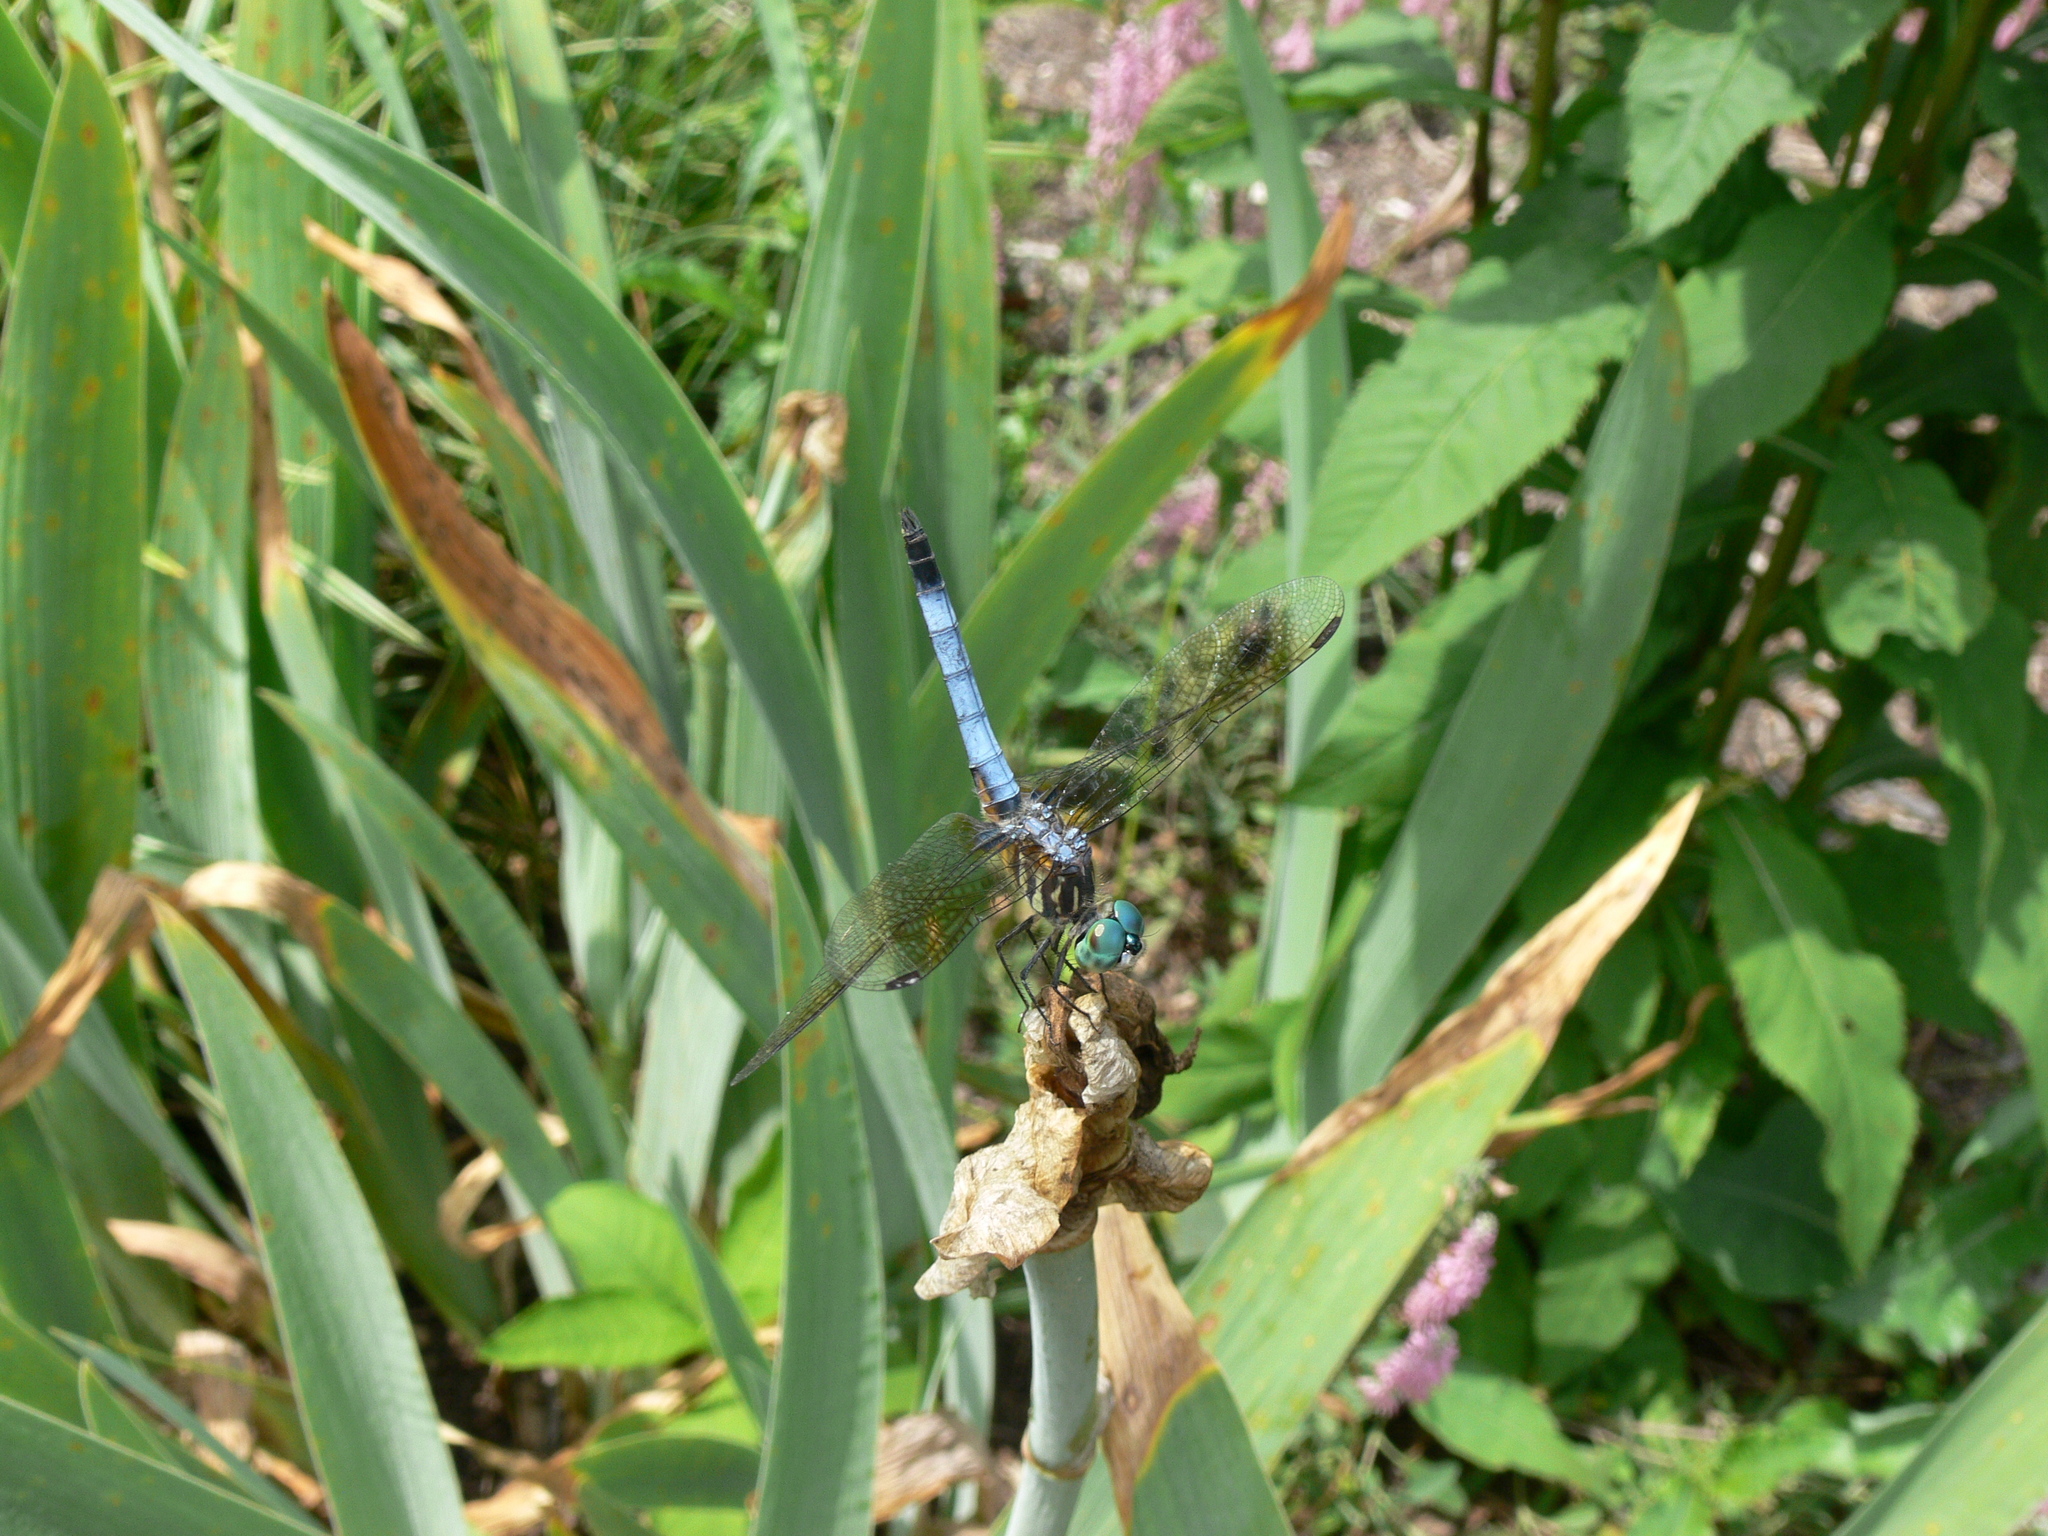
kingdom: Animalia
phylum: Arthropoda
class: Insecta
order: Odonata
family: Libellulidae
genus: Pachydiplax
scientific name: Pachydiplax longipennis
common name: Blue dasher
